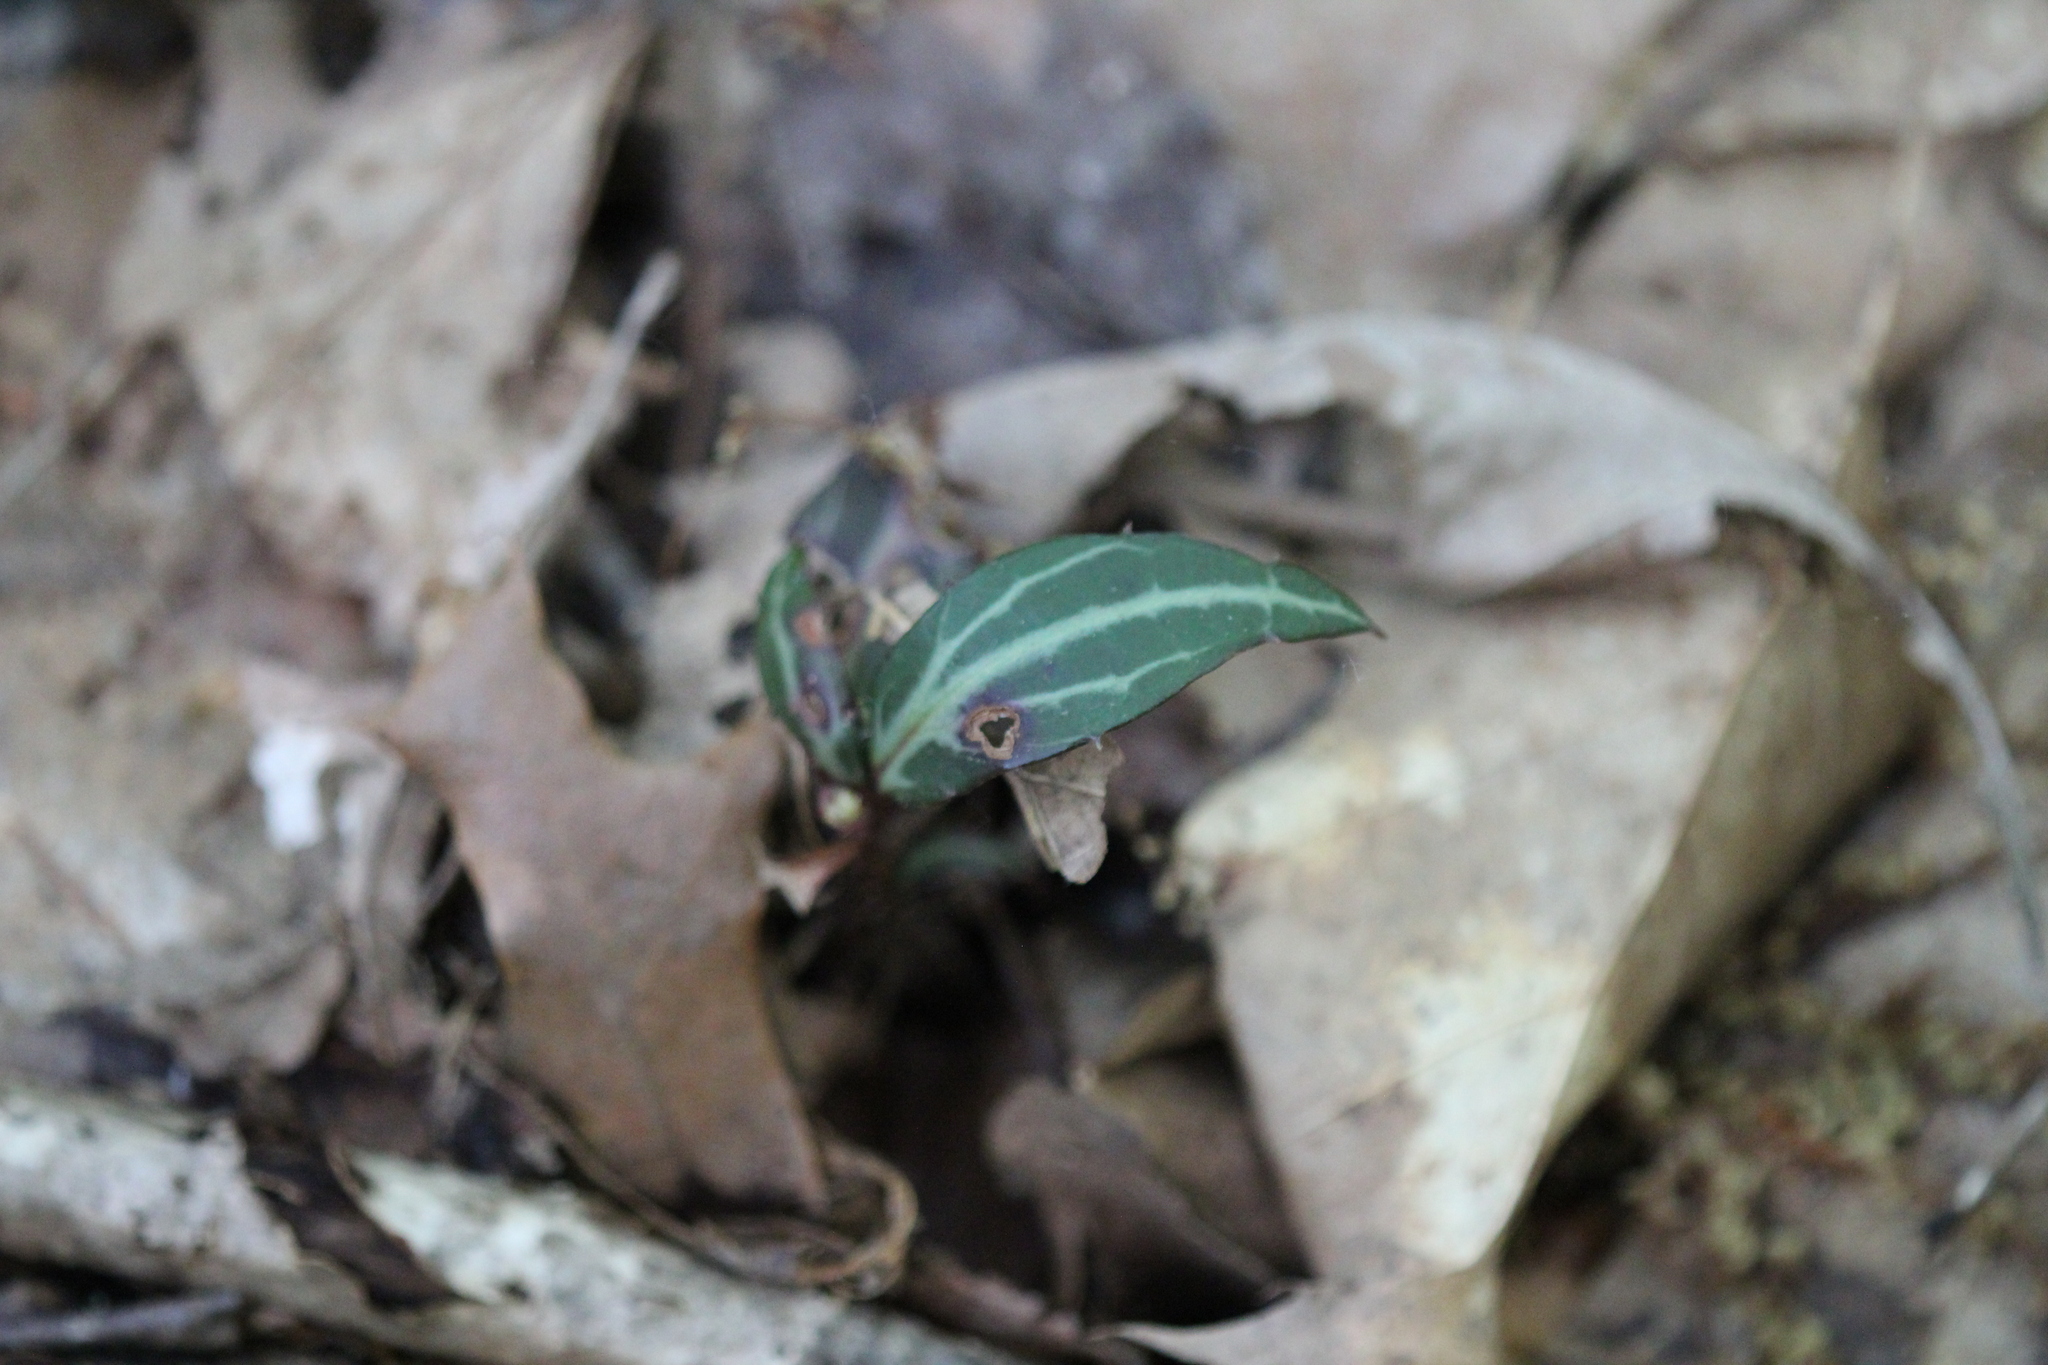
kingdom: Plantae
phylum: Tracheophyta
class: Magnoliopsida
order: Ericales
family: Ericaceae
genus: Chimaphila
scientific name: Chimaphila maculata
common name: Spotted pipsissewa
